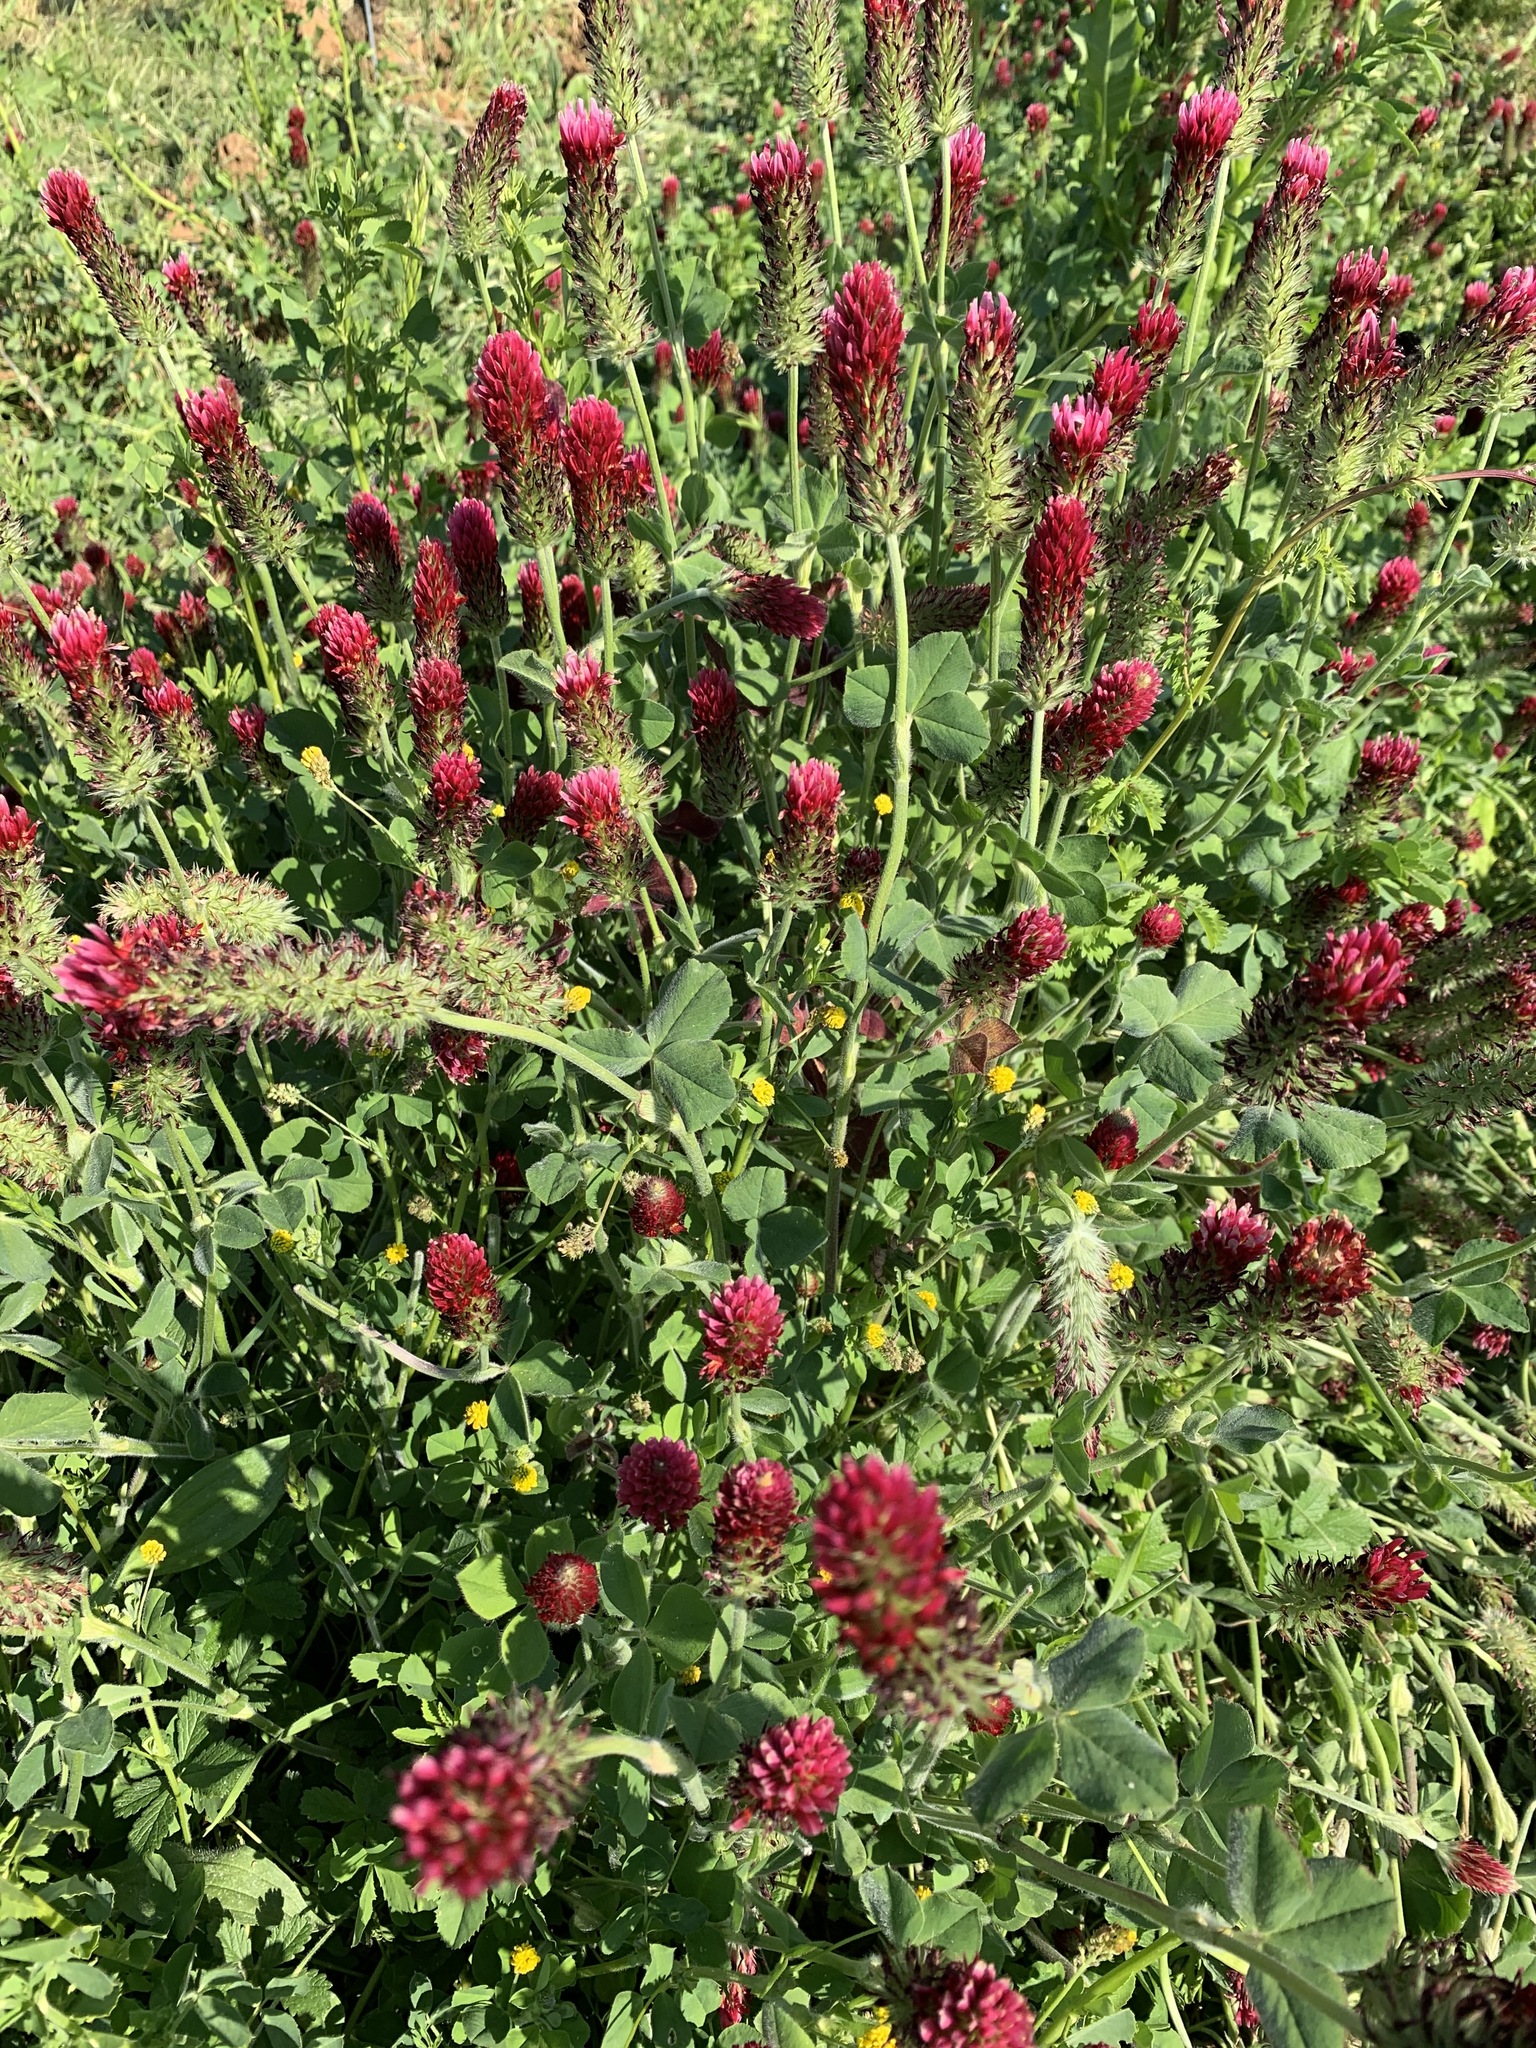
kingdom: Plantae
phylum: Tracheophyta
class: Magnoliopsida
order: Fabales
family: Fabaceae
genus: Trifolium
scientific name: Trifolium incarnatum
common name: Crimson clover
